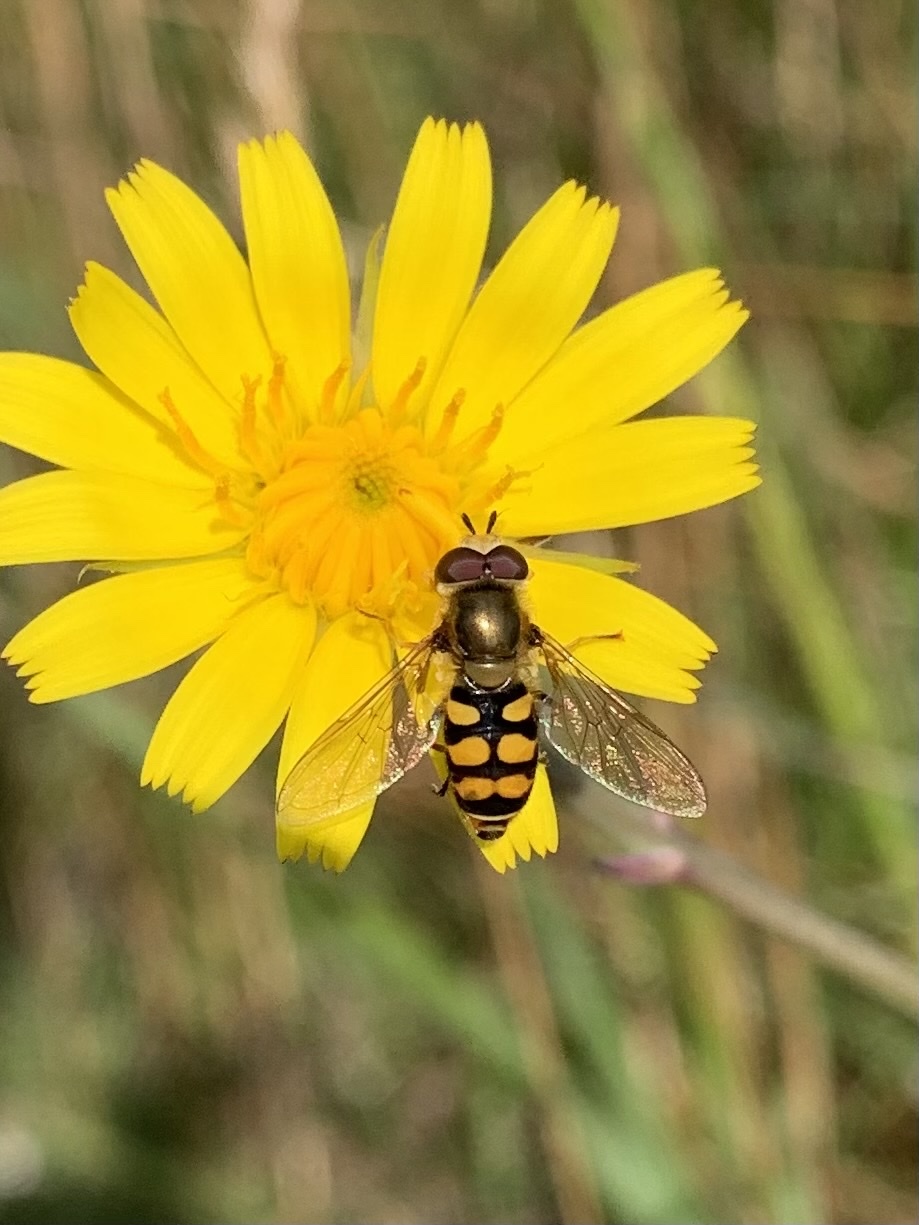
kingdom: Animalia
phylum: Arthropoda
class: Insecta
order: Diptera
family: Syrphidae
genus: Eupeodes
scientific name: Eupeodes corollae
